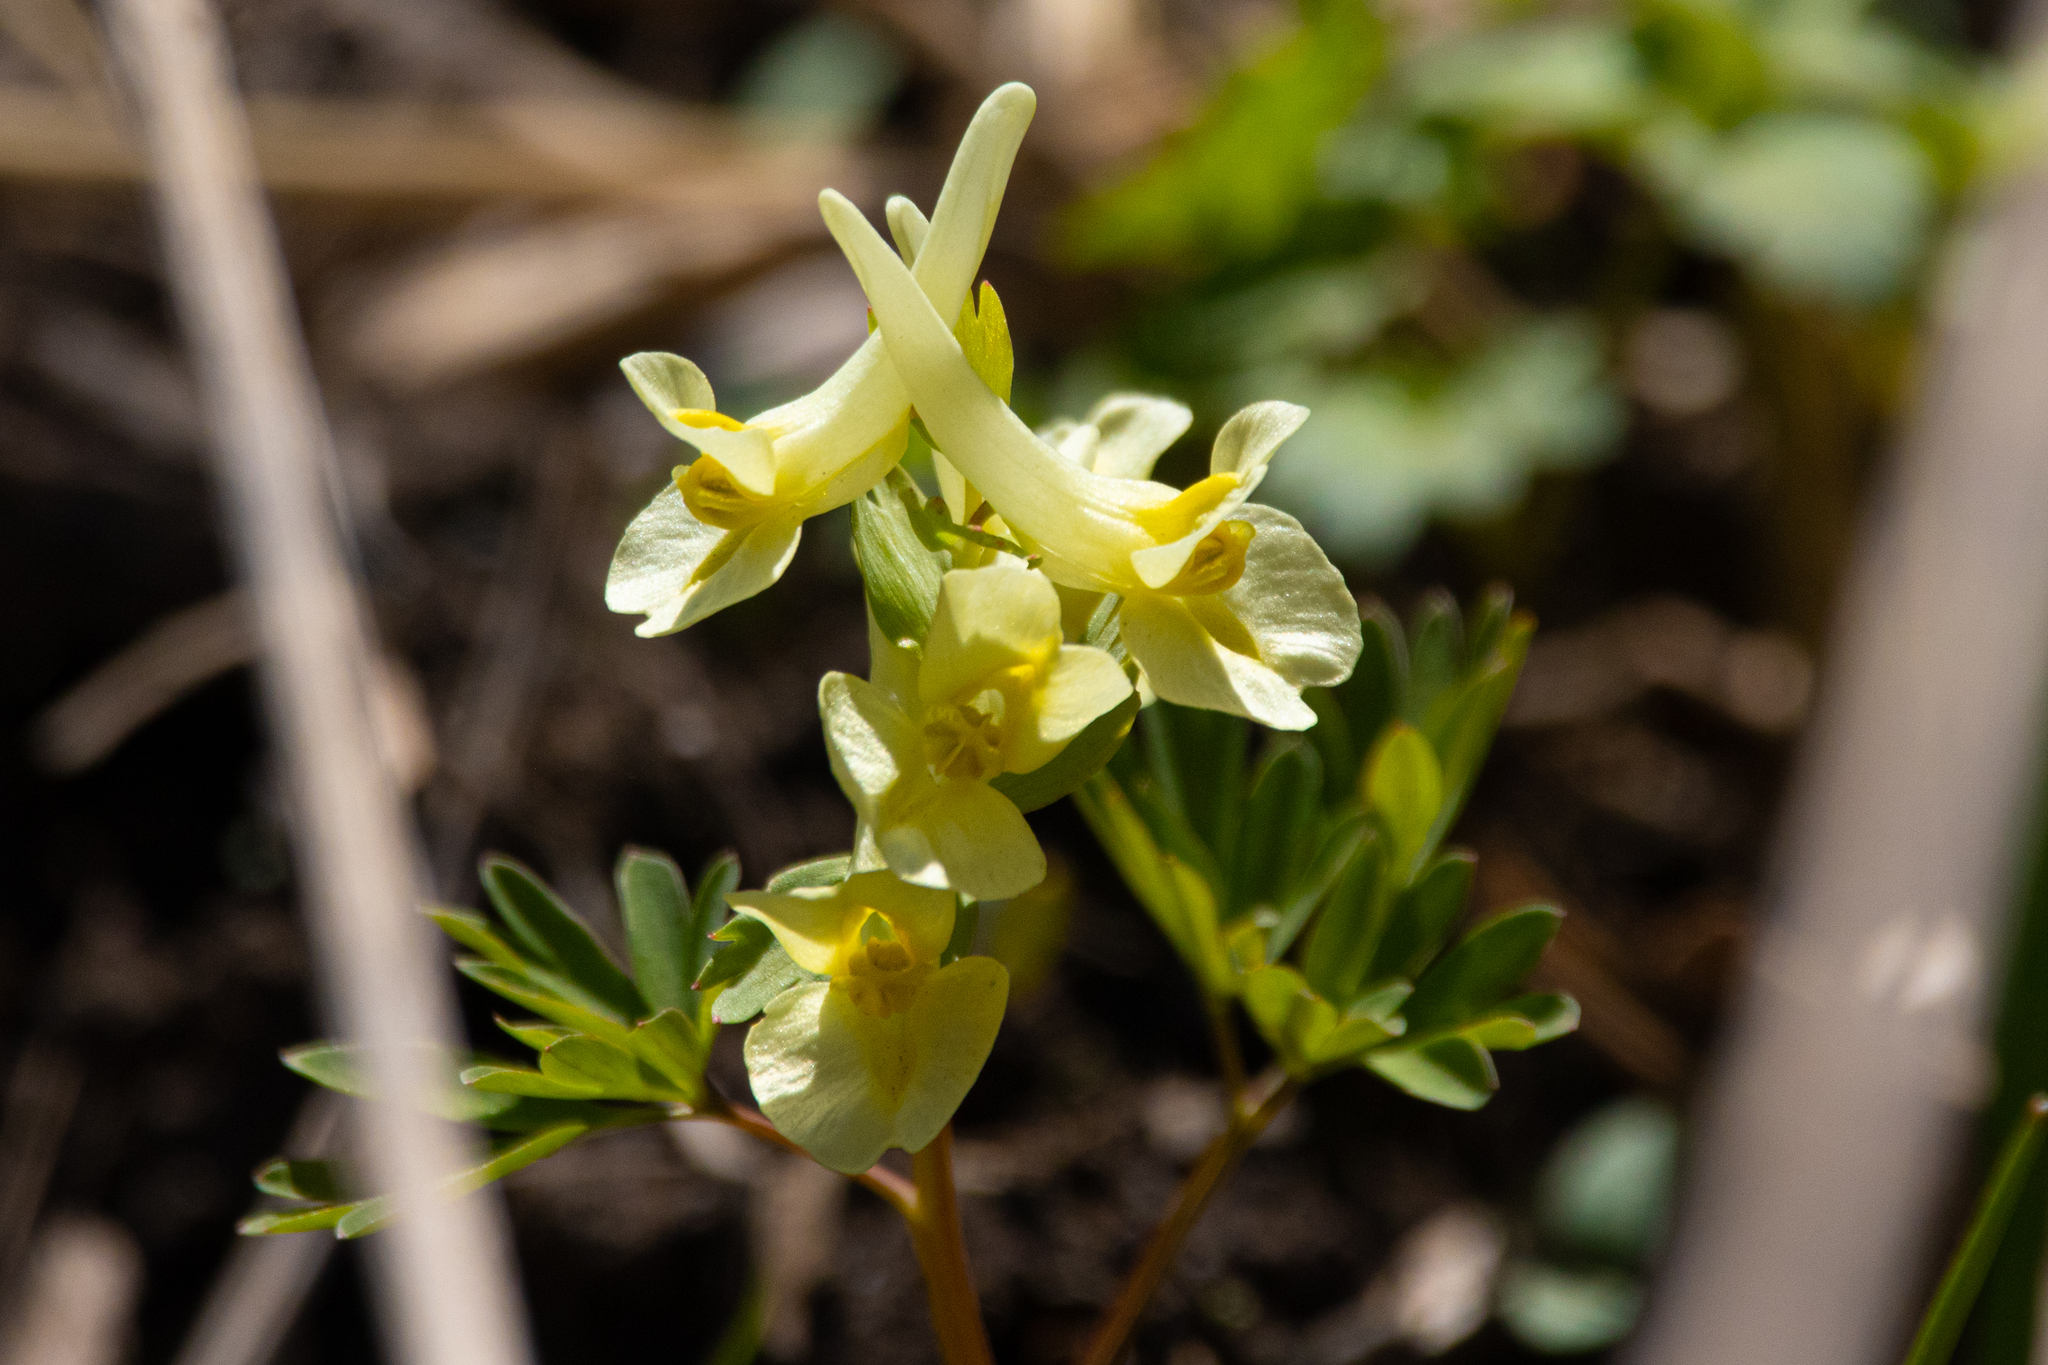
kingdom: Plantae
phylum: Tracheophyta
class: Magnoliopsida
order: Ranunculales
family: Papaveraceae
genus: Corydalis
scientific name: Corydalis bracteata
